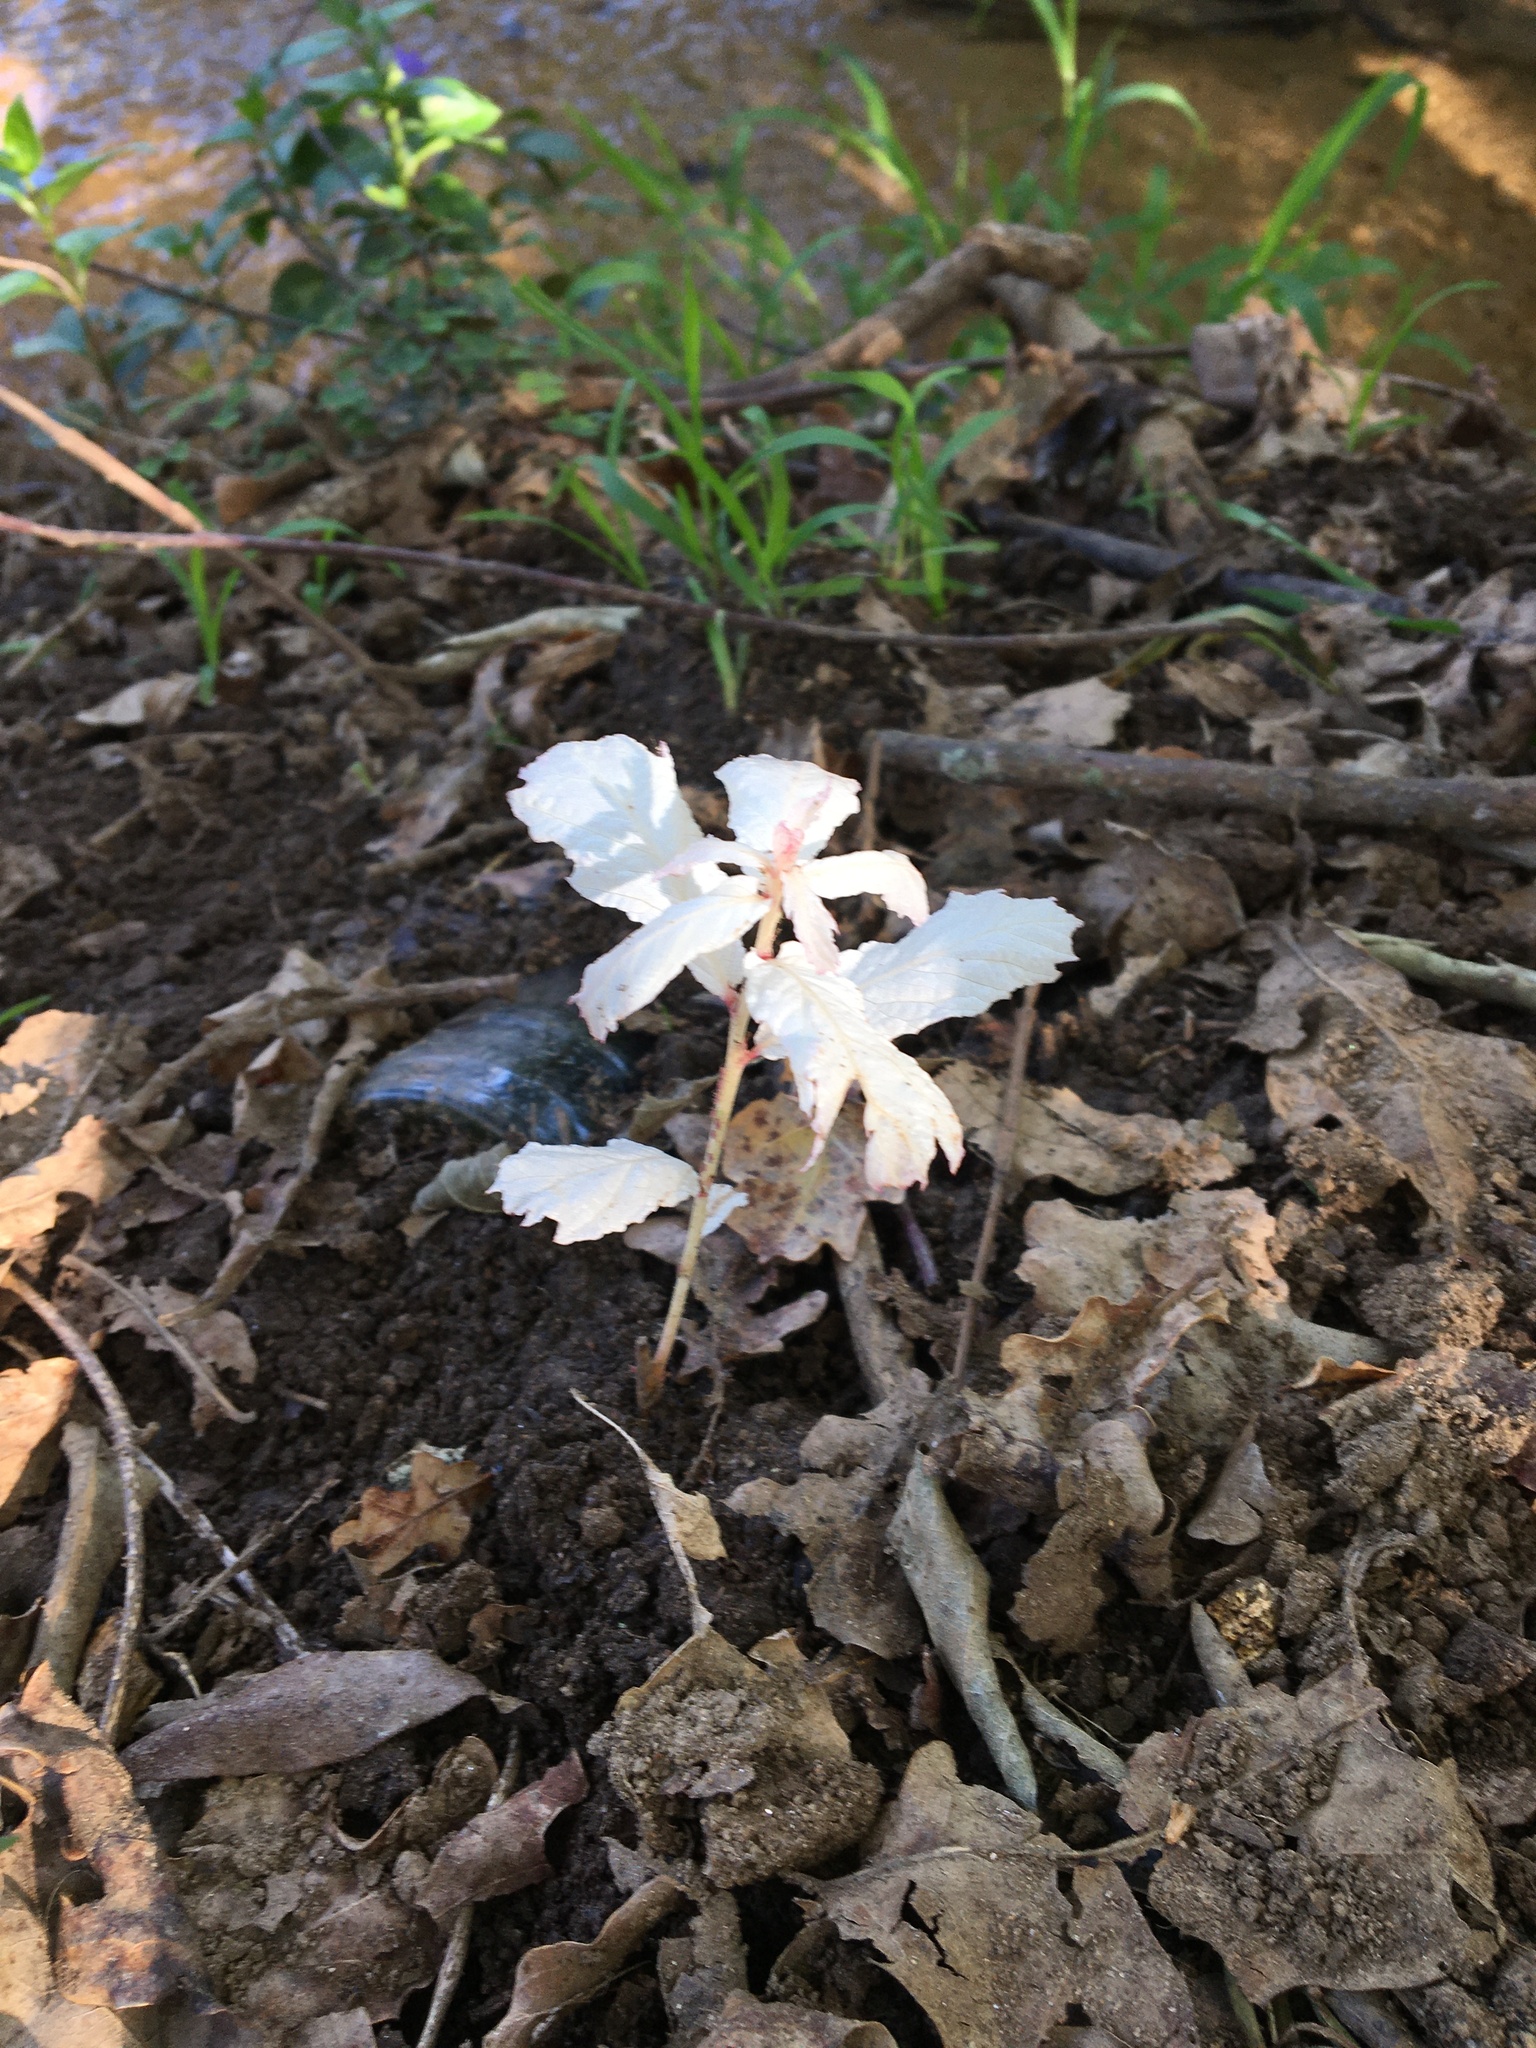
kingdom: Plantae
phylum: Tracheophyta
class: Magnoliopsida
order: Fagales
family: Fagaceae
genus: Quercus
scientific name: Quercus robur
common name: Pedunculate oak
